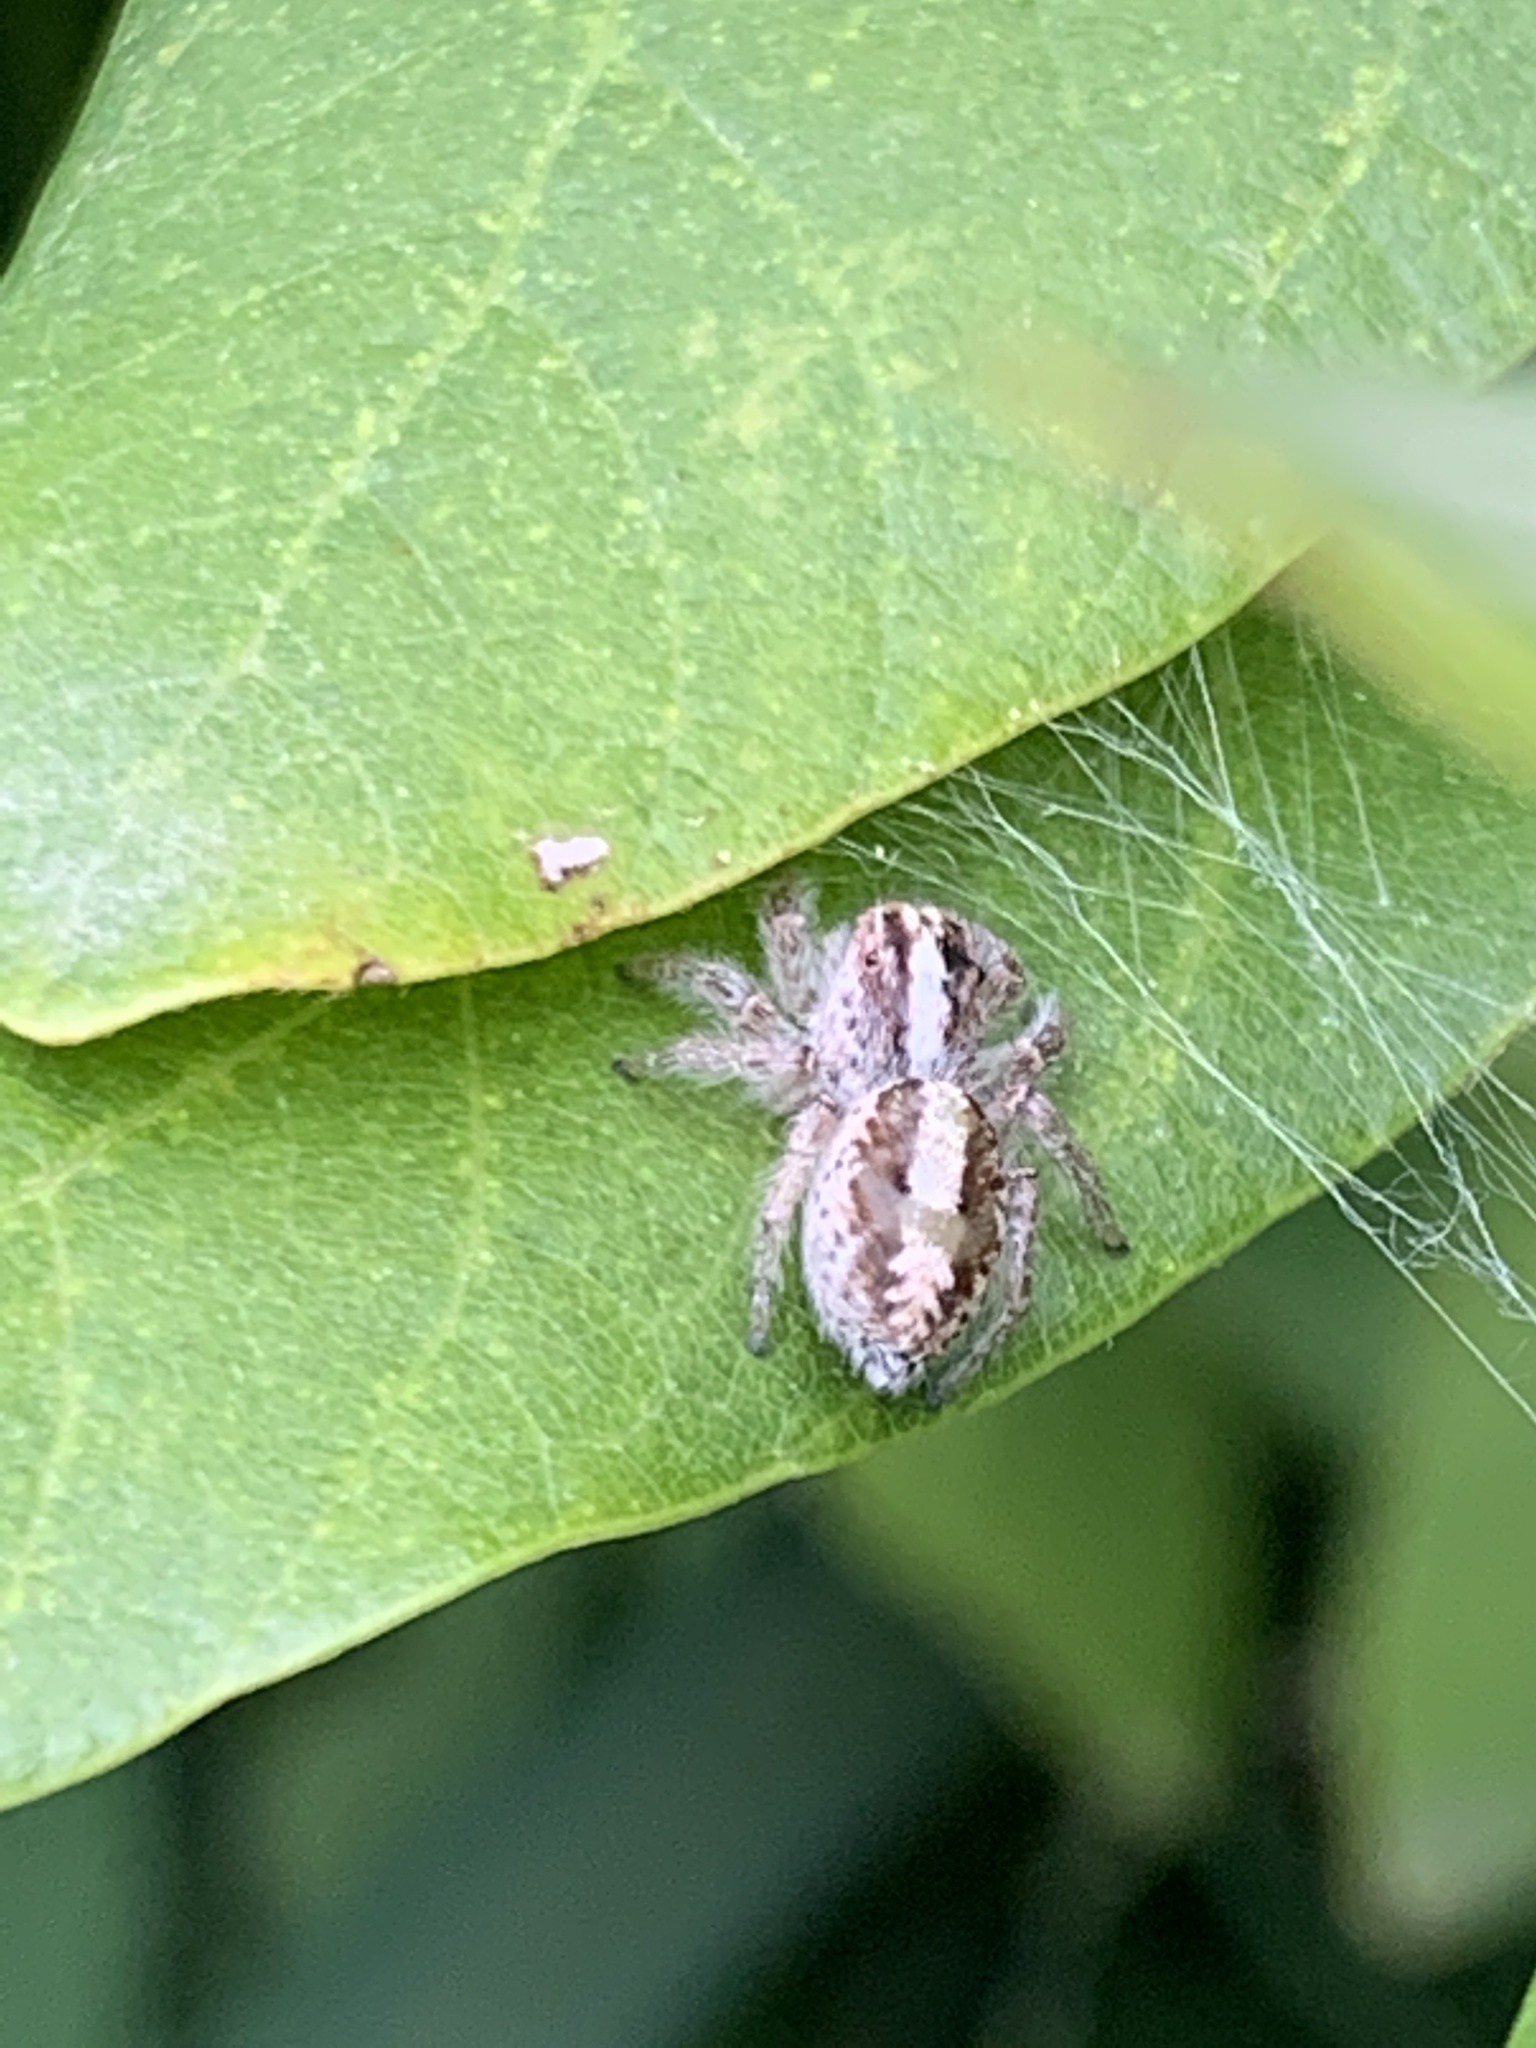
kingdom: Animalia
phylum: Arthropoda
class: Arachnida
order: Araneae
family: Salticidae
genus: Megafreya
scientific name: Megafreya sutrix
